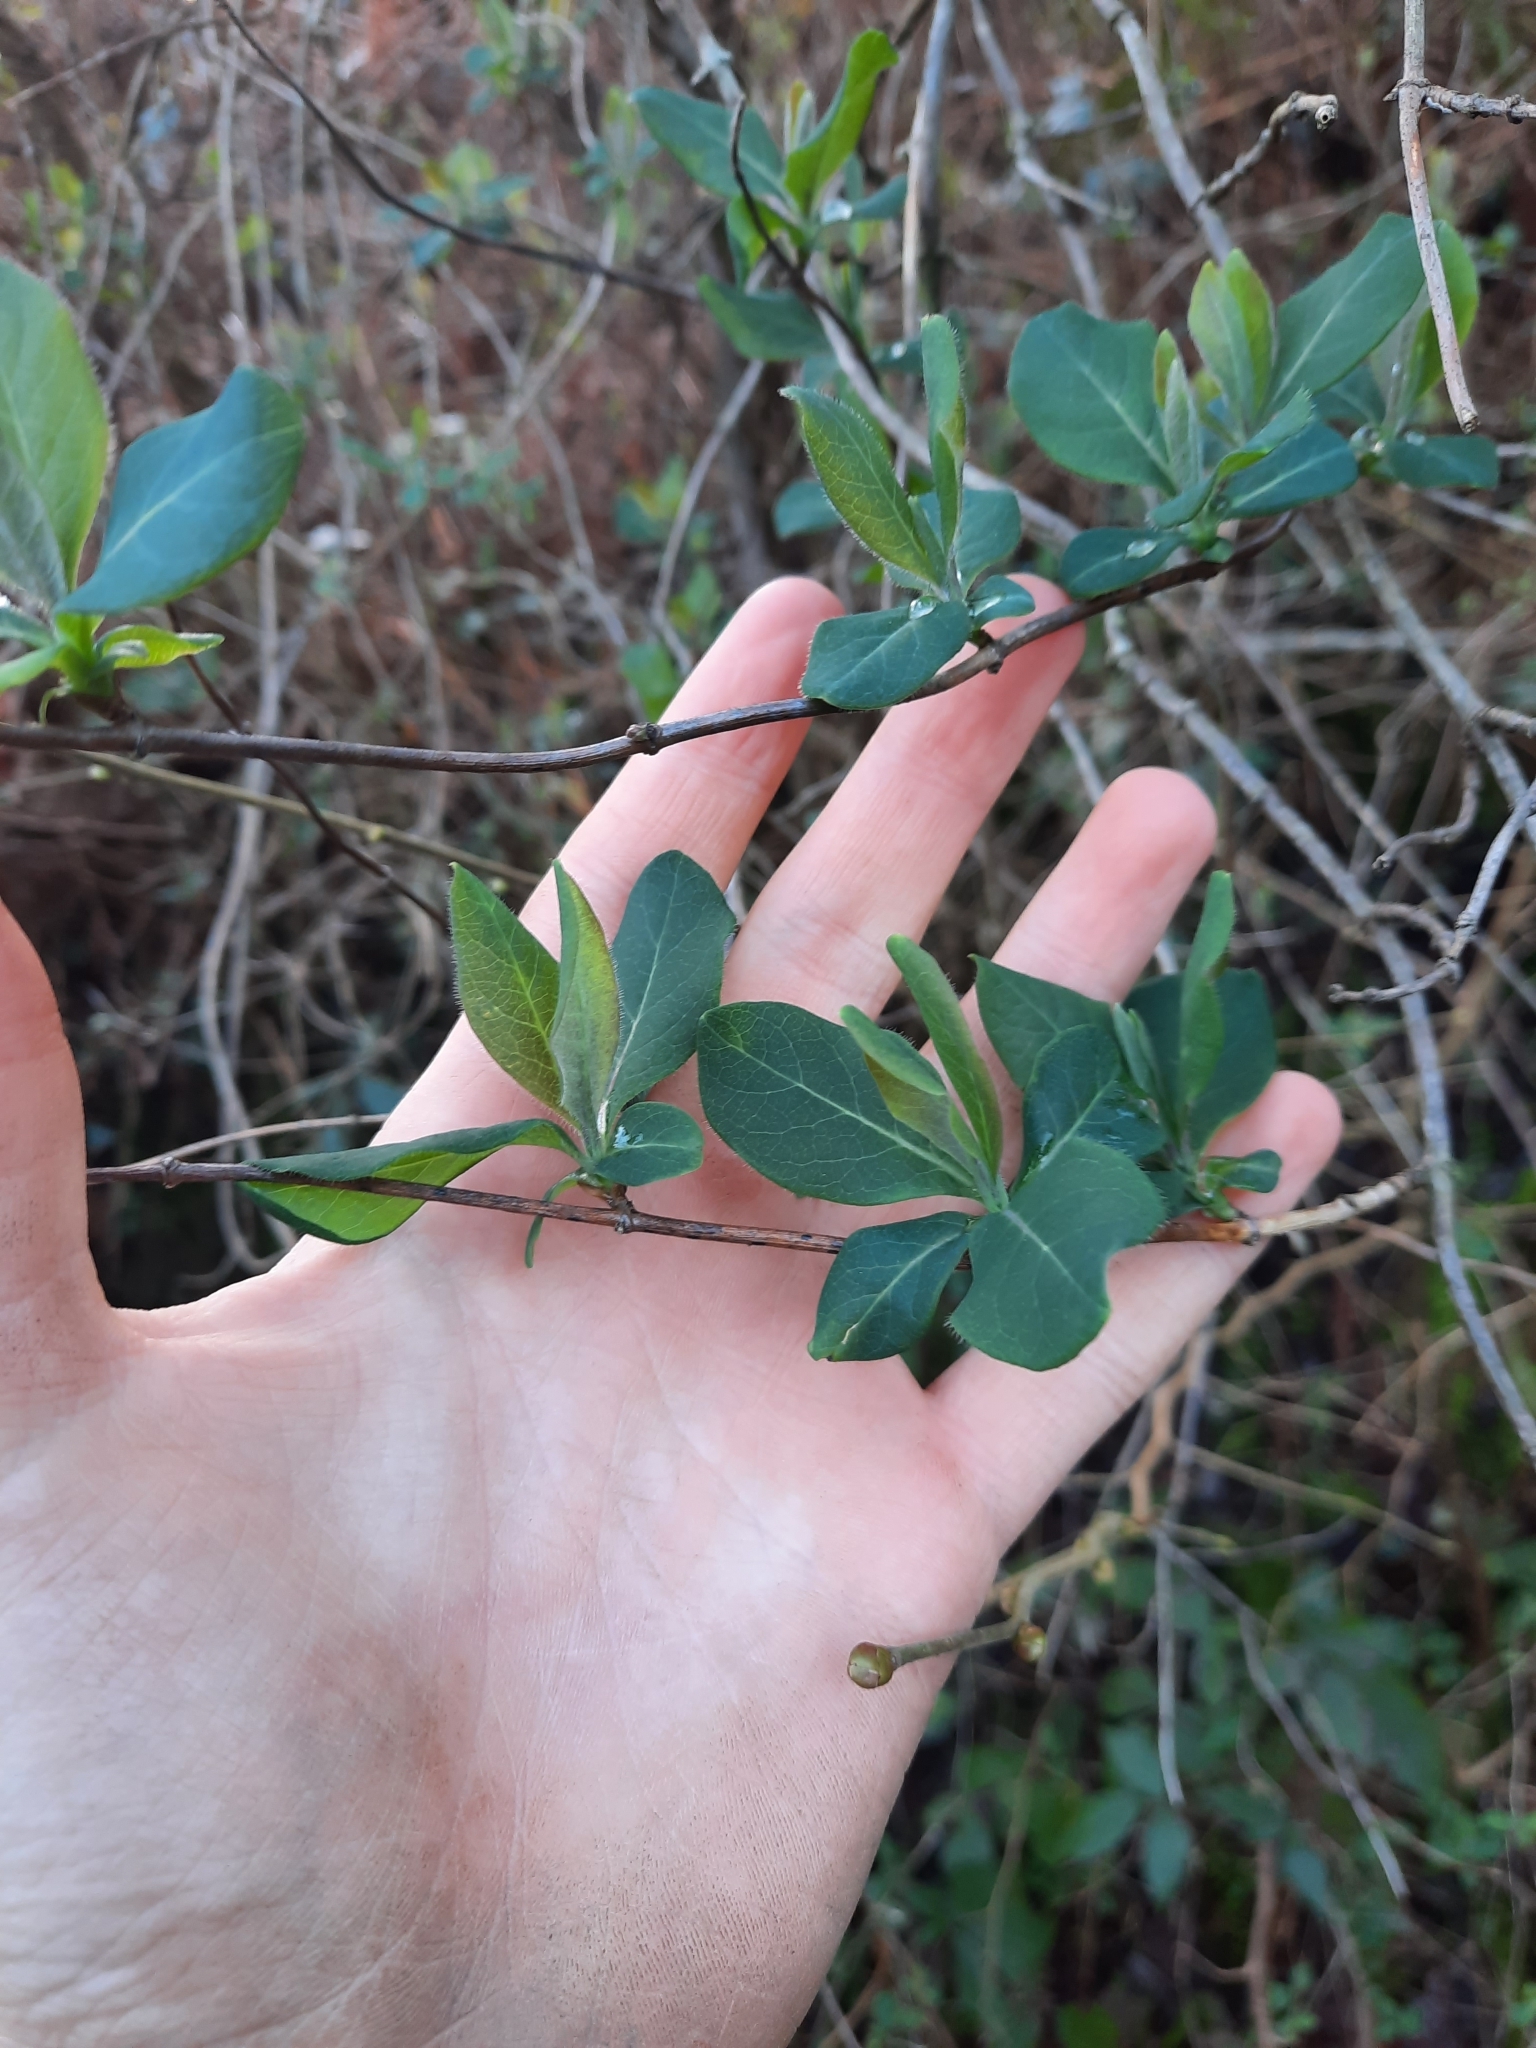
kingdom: Plantae
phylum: Tracheophyta
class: Magnoliopsida
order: Dipsacales
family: Caprifoliaceae
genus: Lonicera
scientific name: Lonicera periclymenum
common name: European honeysuckle
